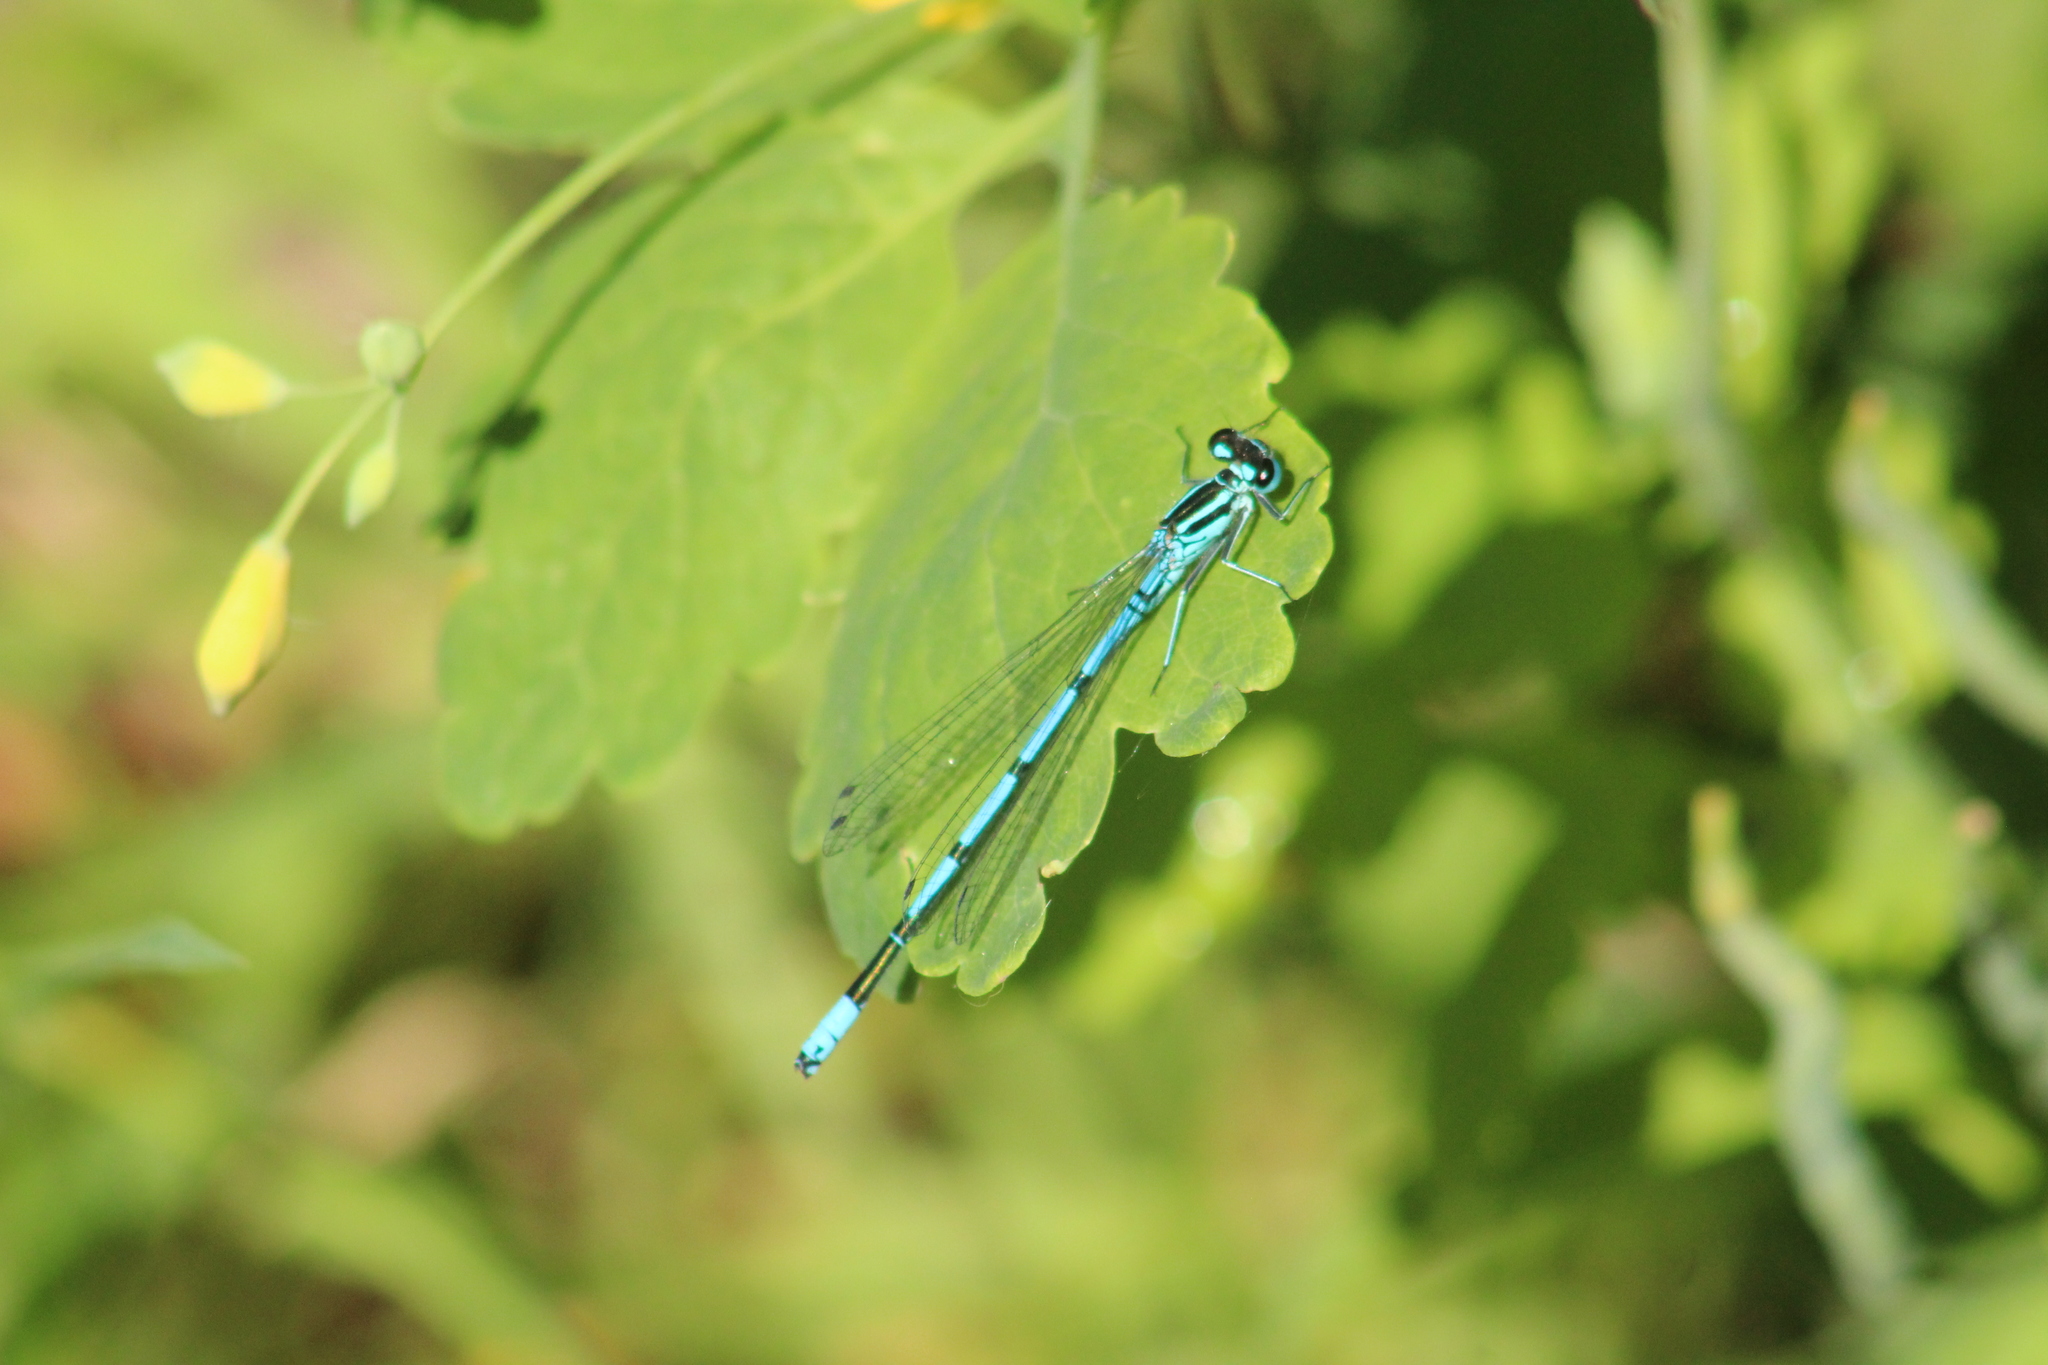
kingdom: Animalia
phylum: Arthropoda
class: Insecta
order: Odonata
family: Coenagrionidae
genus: Coenagrion
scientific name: Coenagrion puella
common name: Azure damselfly
